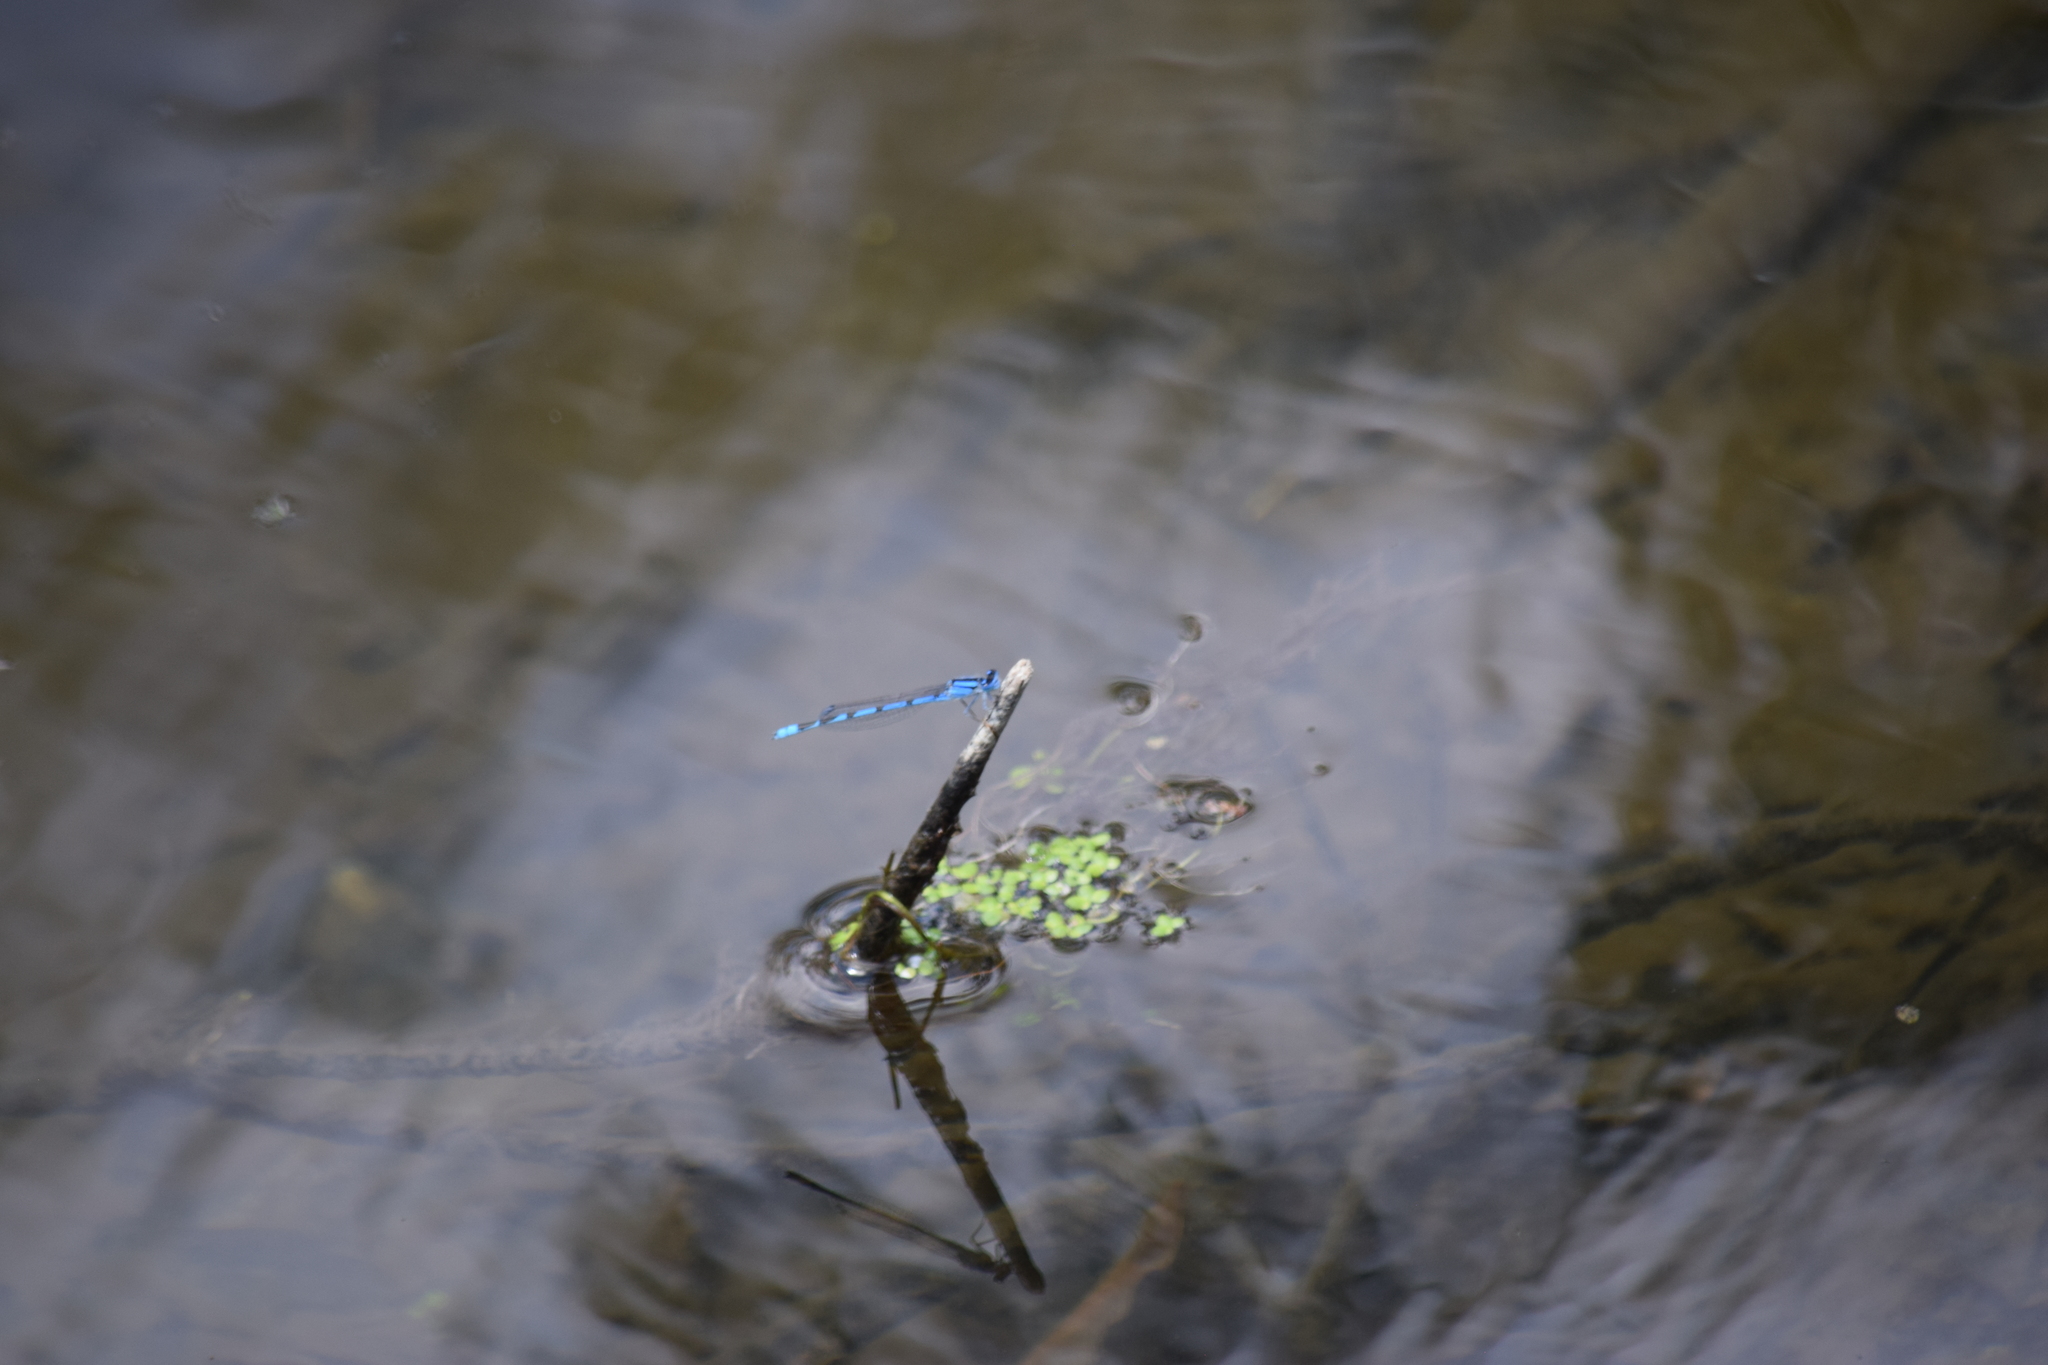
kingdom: Animalia
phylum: Arthropoda
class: Insecta
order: Odonata
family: Coenagrionidae
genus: Enallagma
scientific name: Enallagma civile
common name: Damselfly
